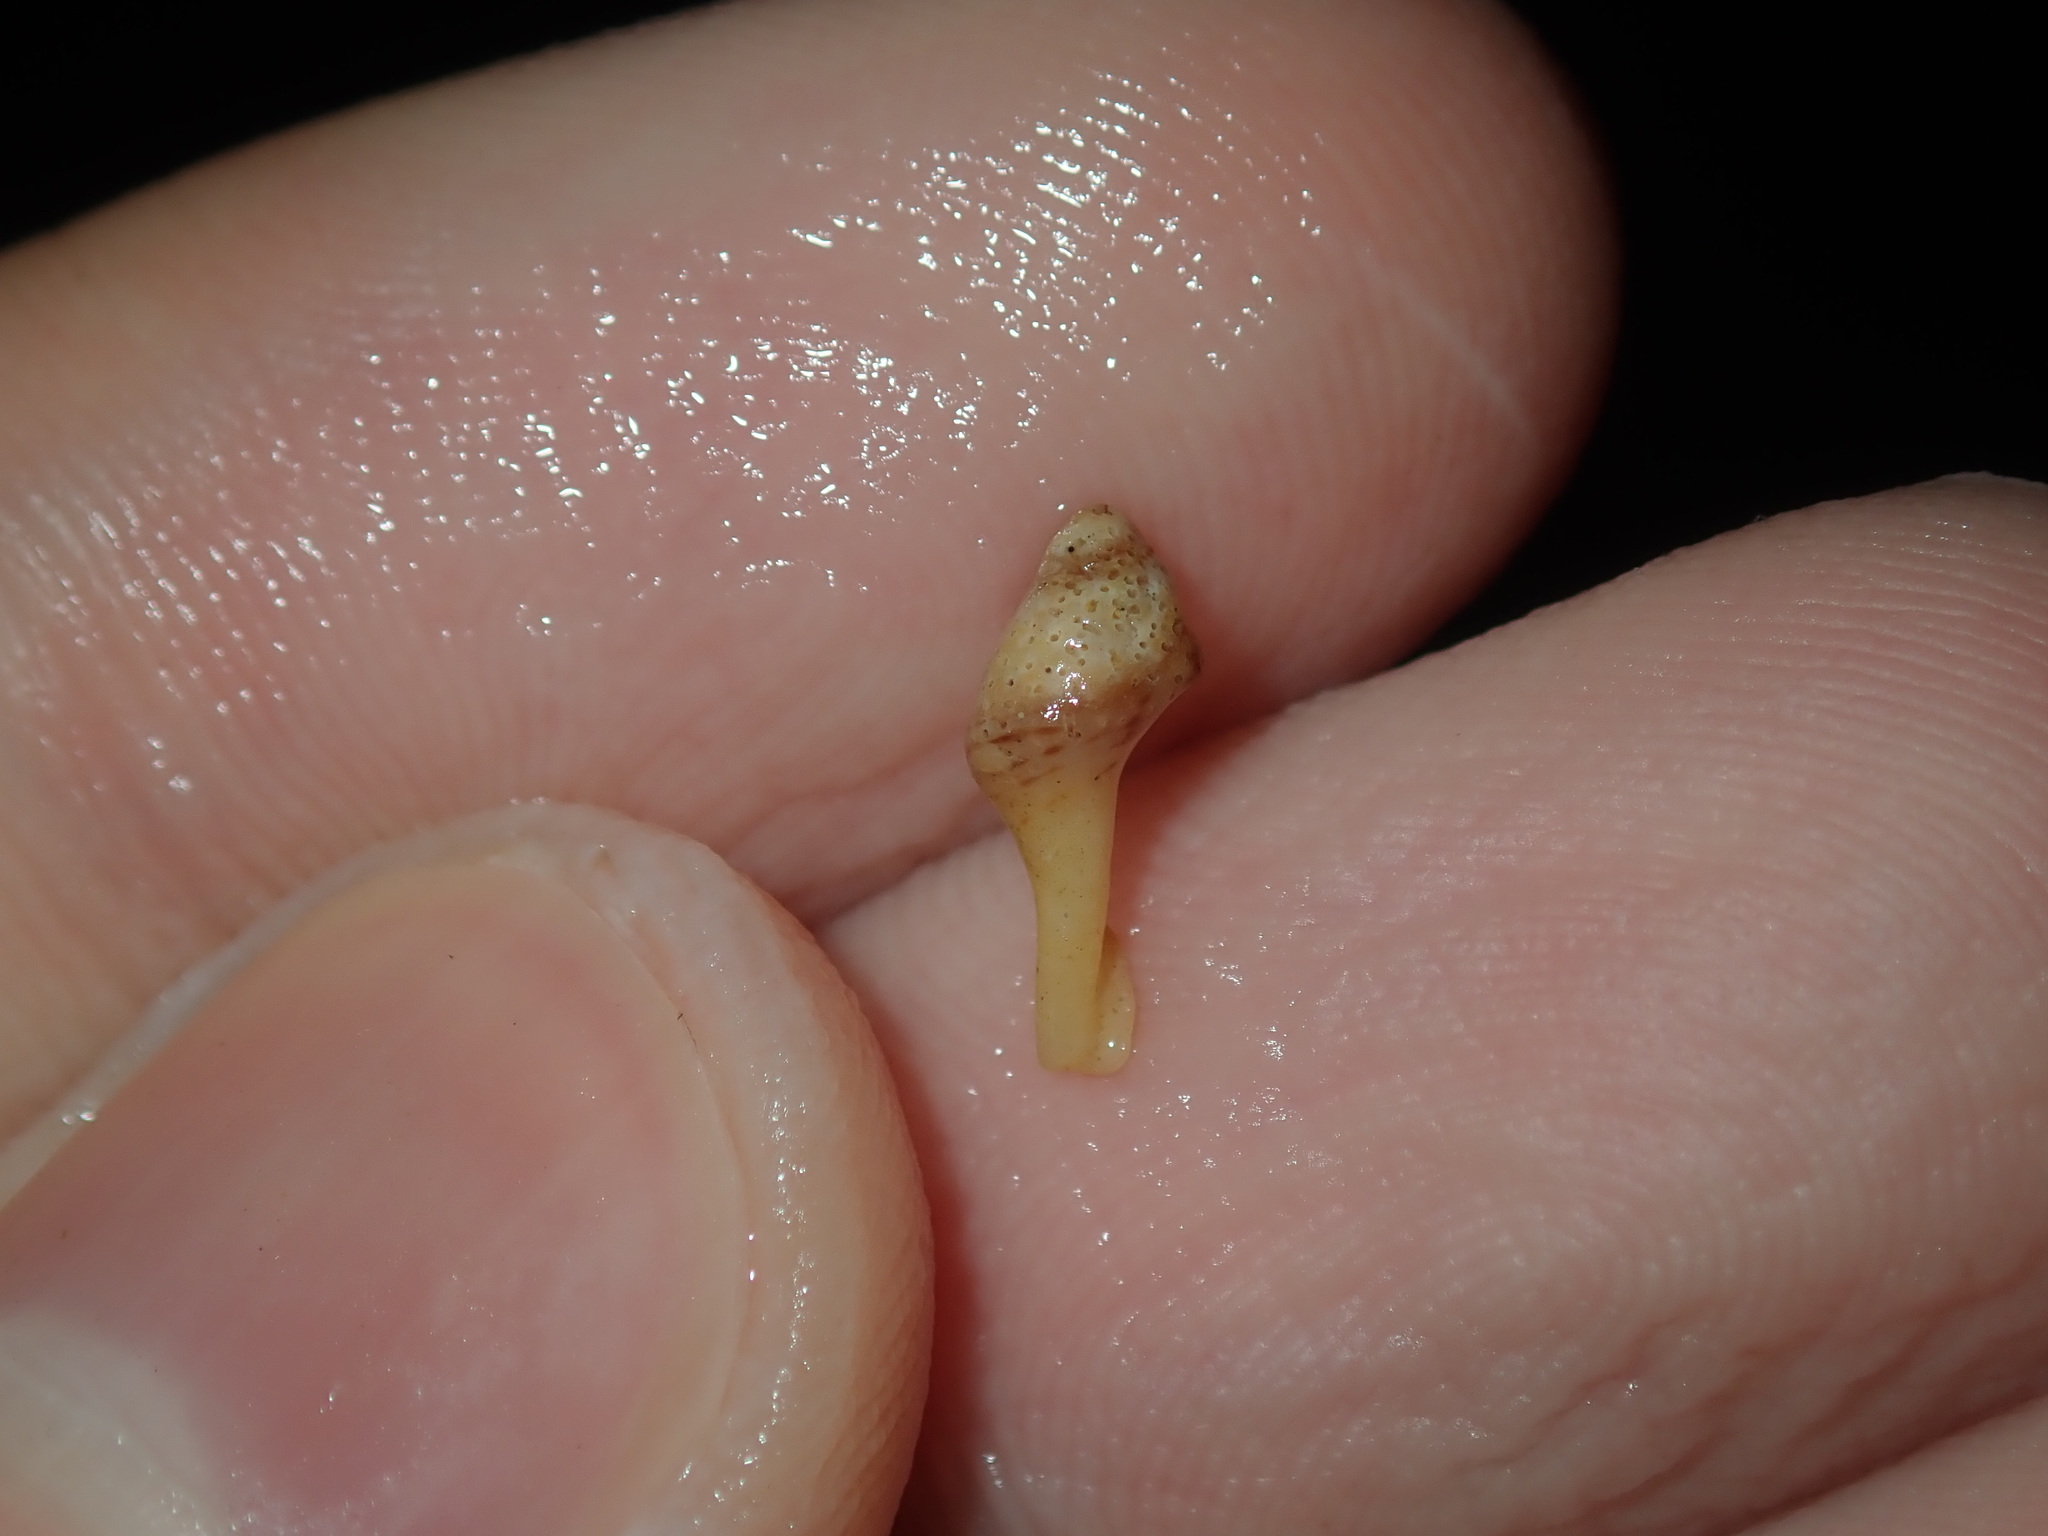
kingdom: Animalia
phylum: Mollusca
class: Gastropoda
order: Neogastropoda
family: Muricidae
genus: Dicathais
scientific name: Dicathais orbita
